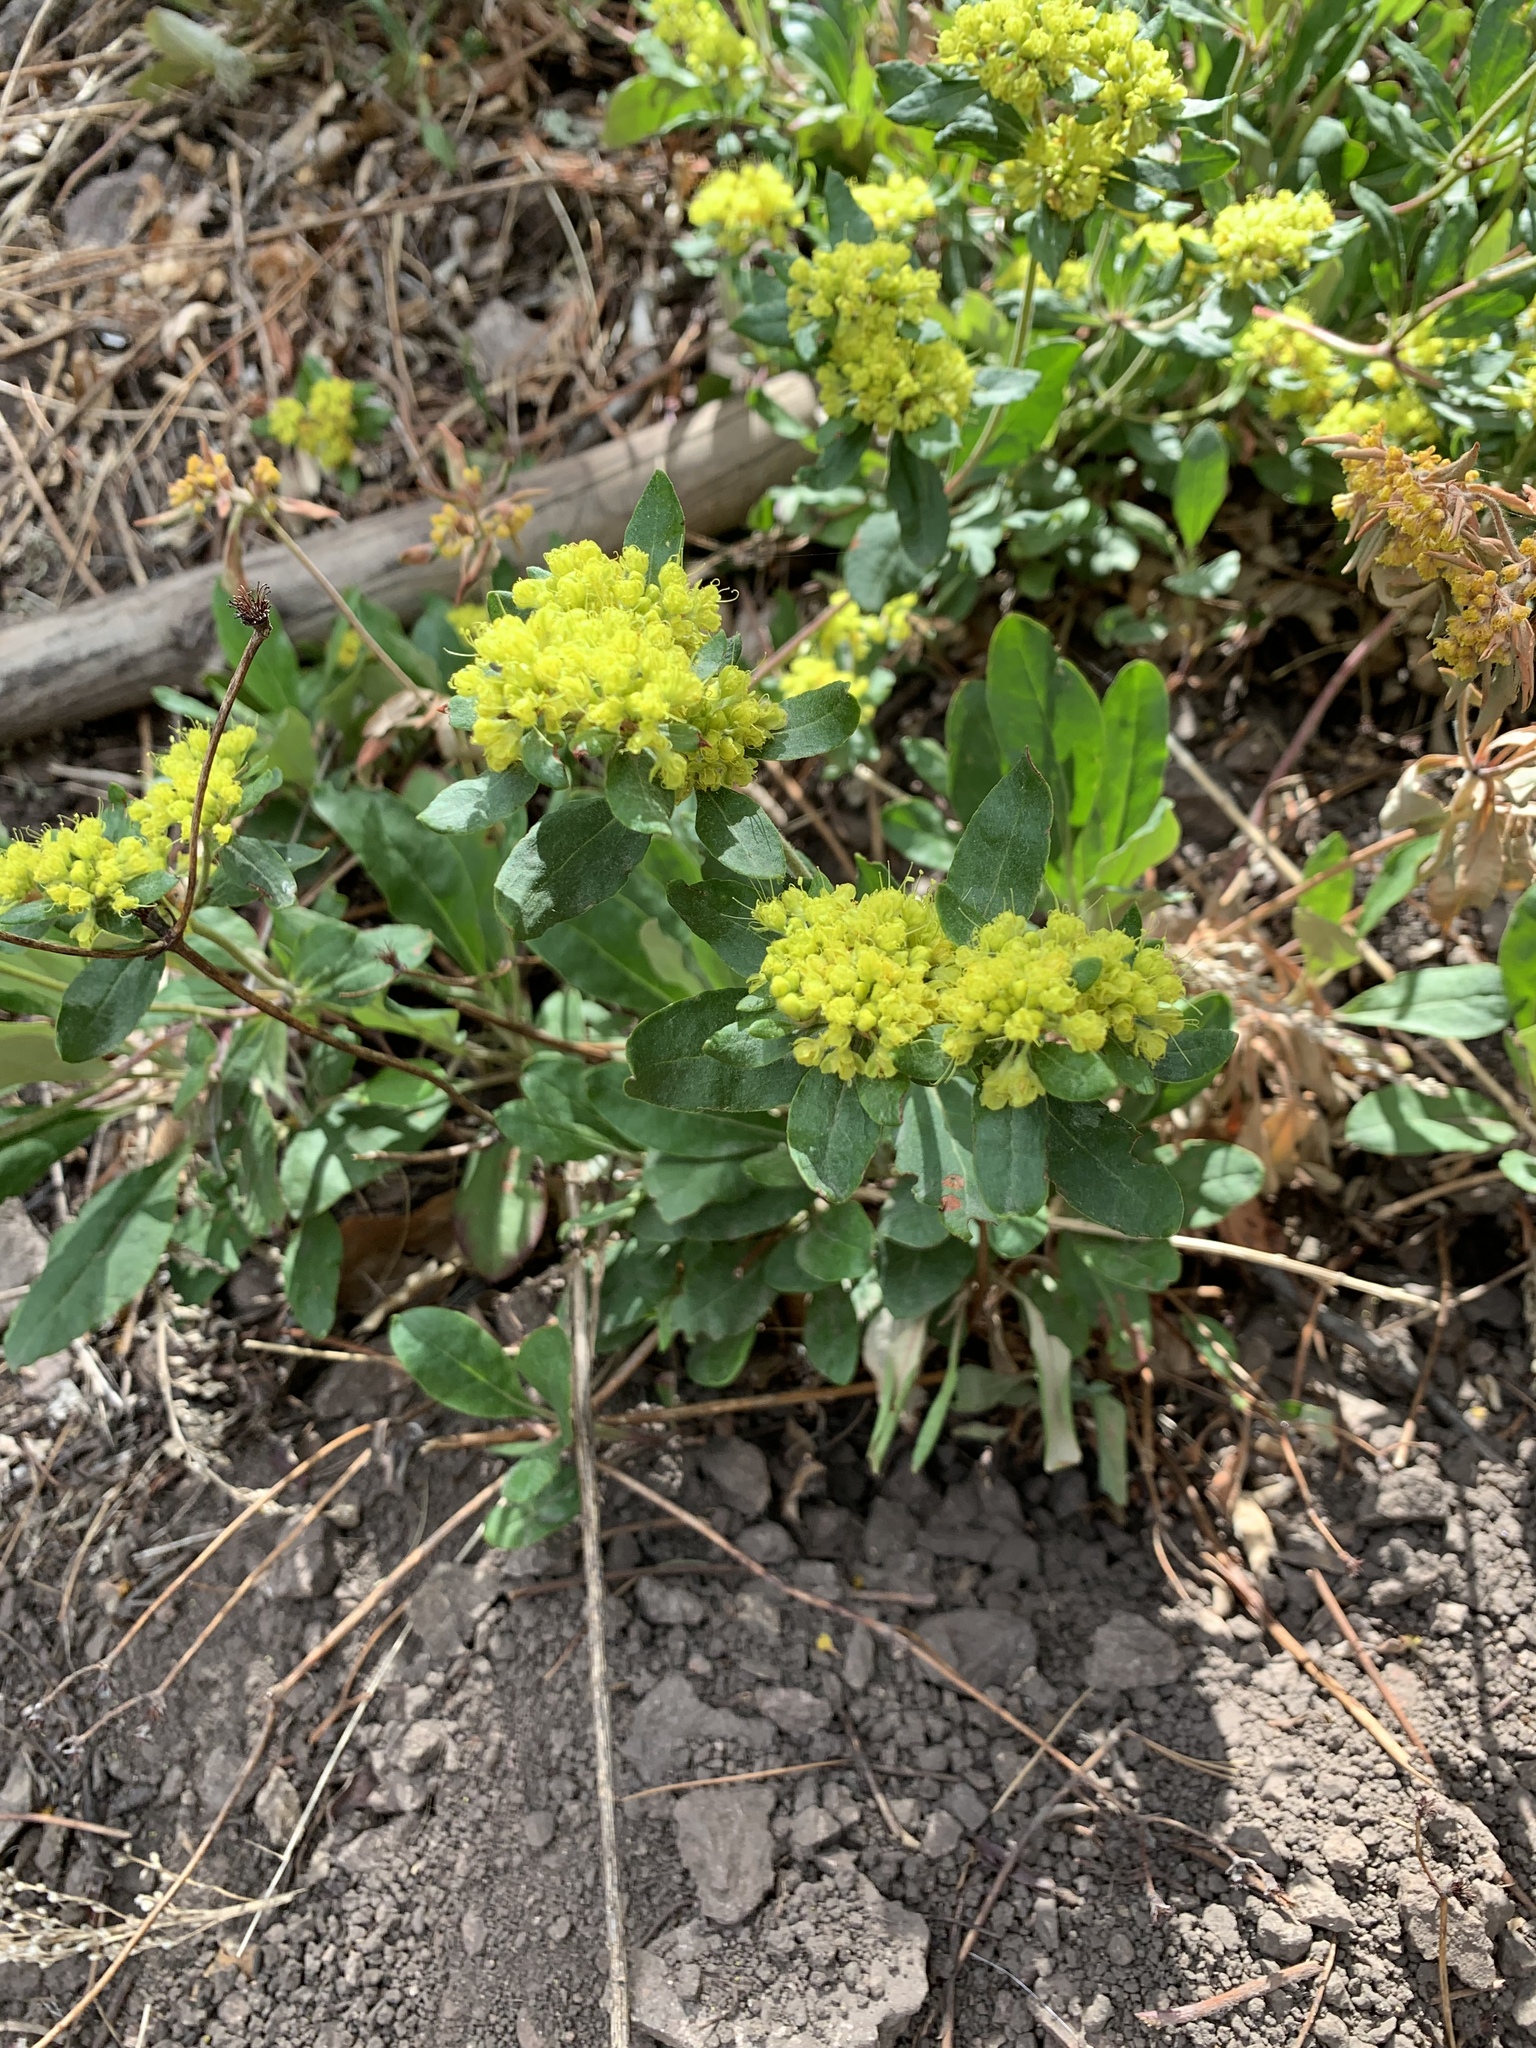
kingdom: Plantae
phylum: Tracheophyta
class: Magnoliopsida
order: Caryophyllales
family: Polygonaceae
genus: Eriogonum
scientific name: Eriogonum wootonii
